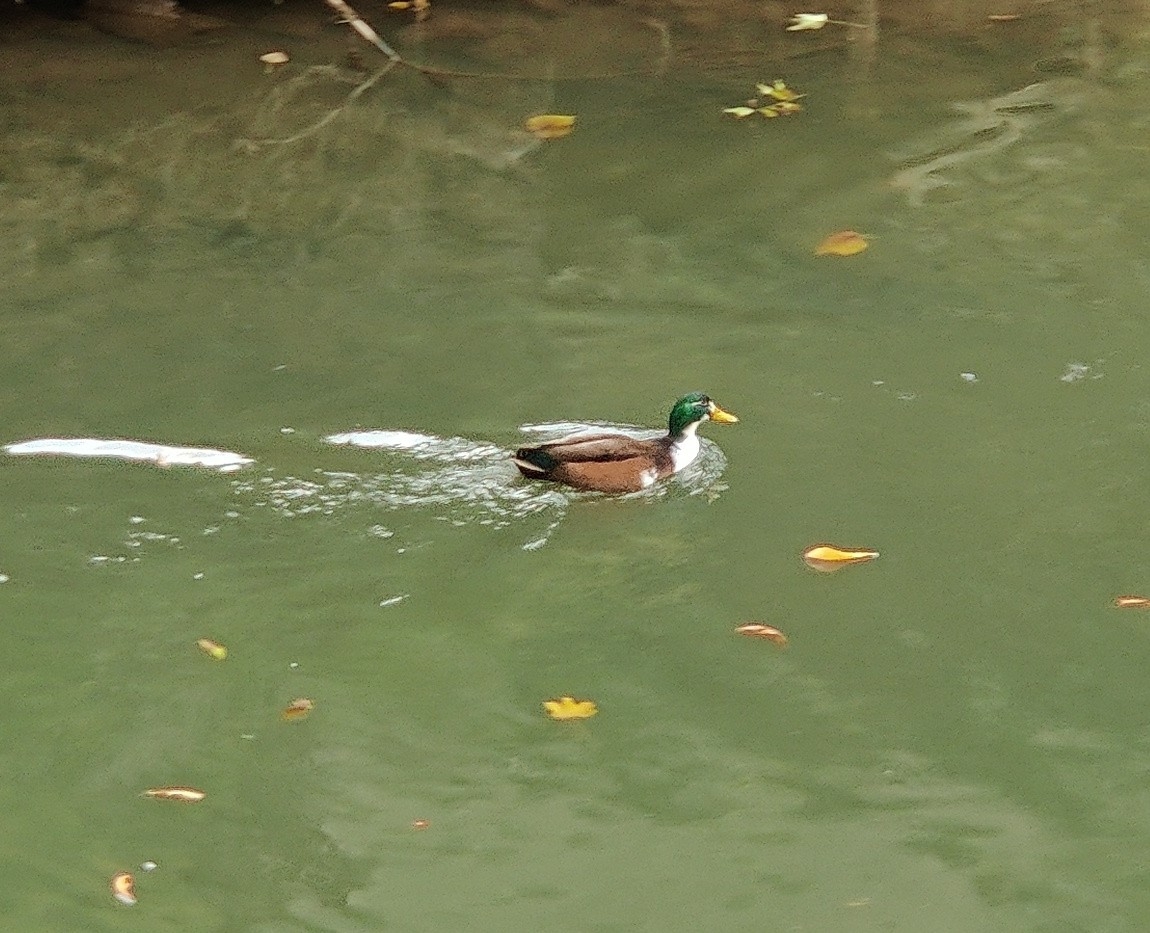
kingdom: Animalia
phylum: Chordata
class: Aves
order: Anseriformes
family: Anatidae
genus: Anas
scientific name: Anas platyrhynchos
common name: Mallard
